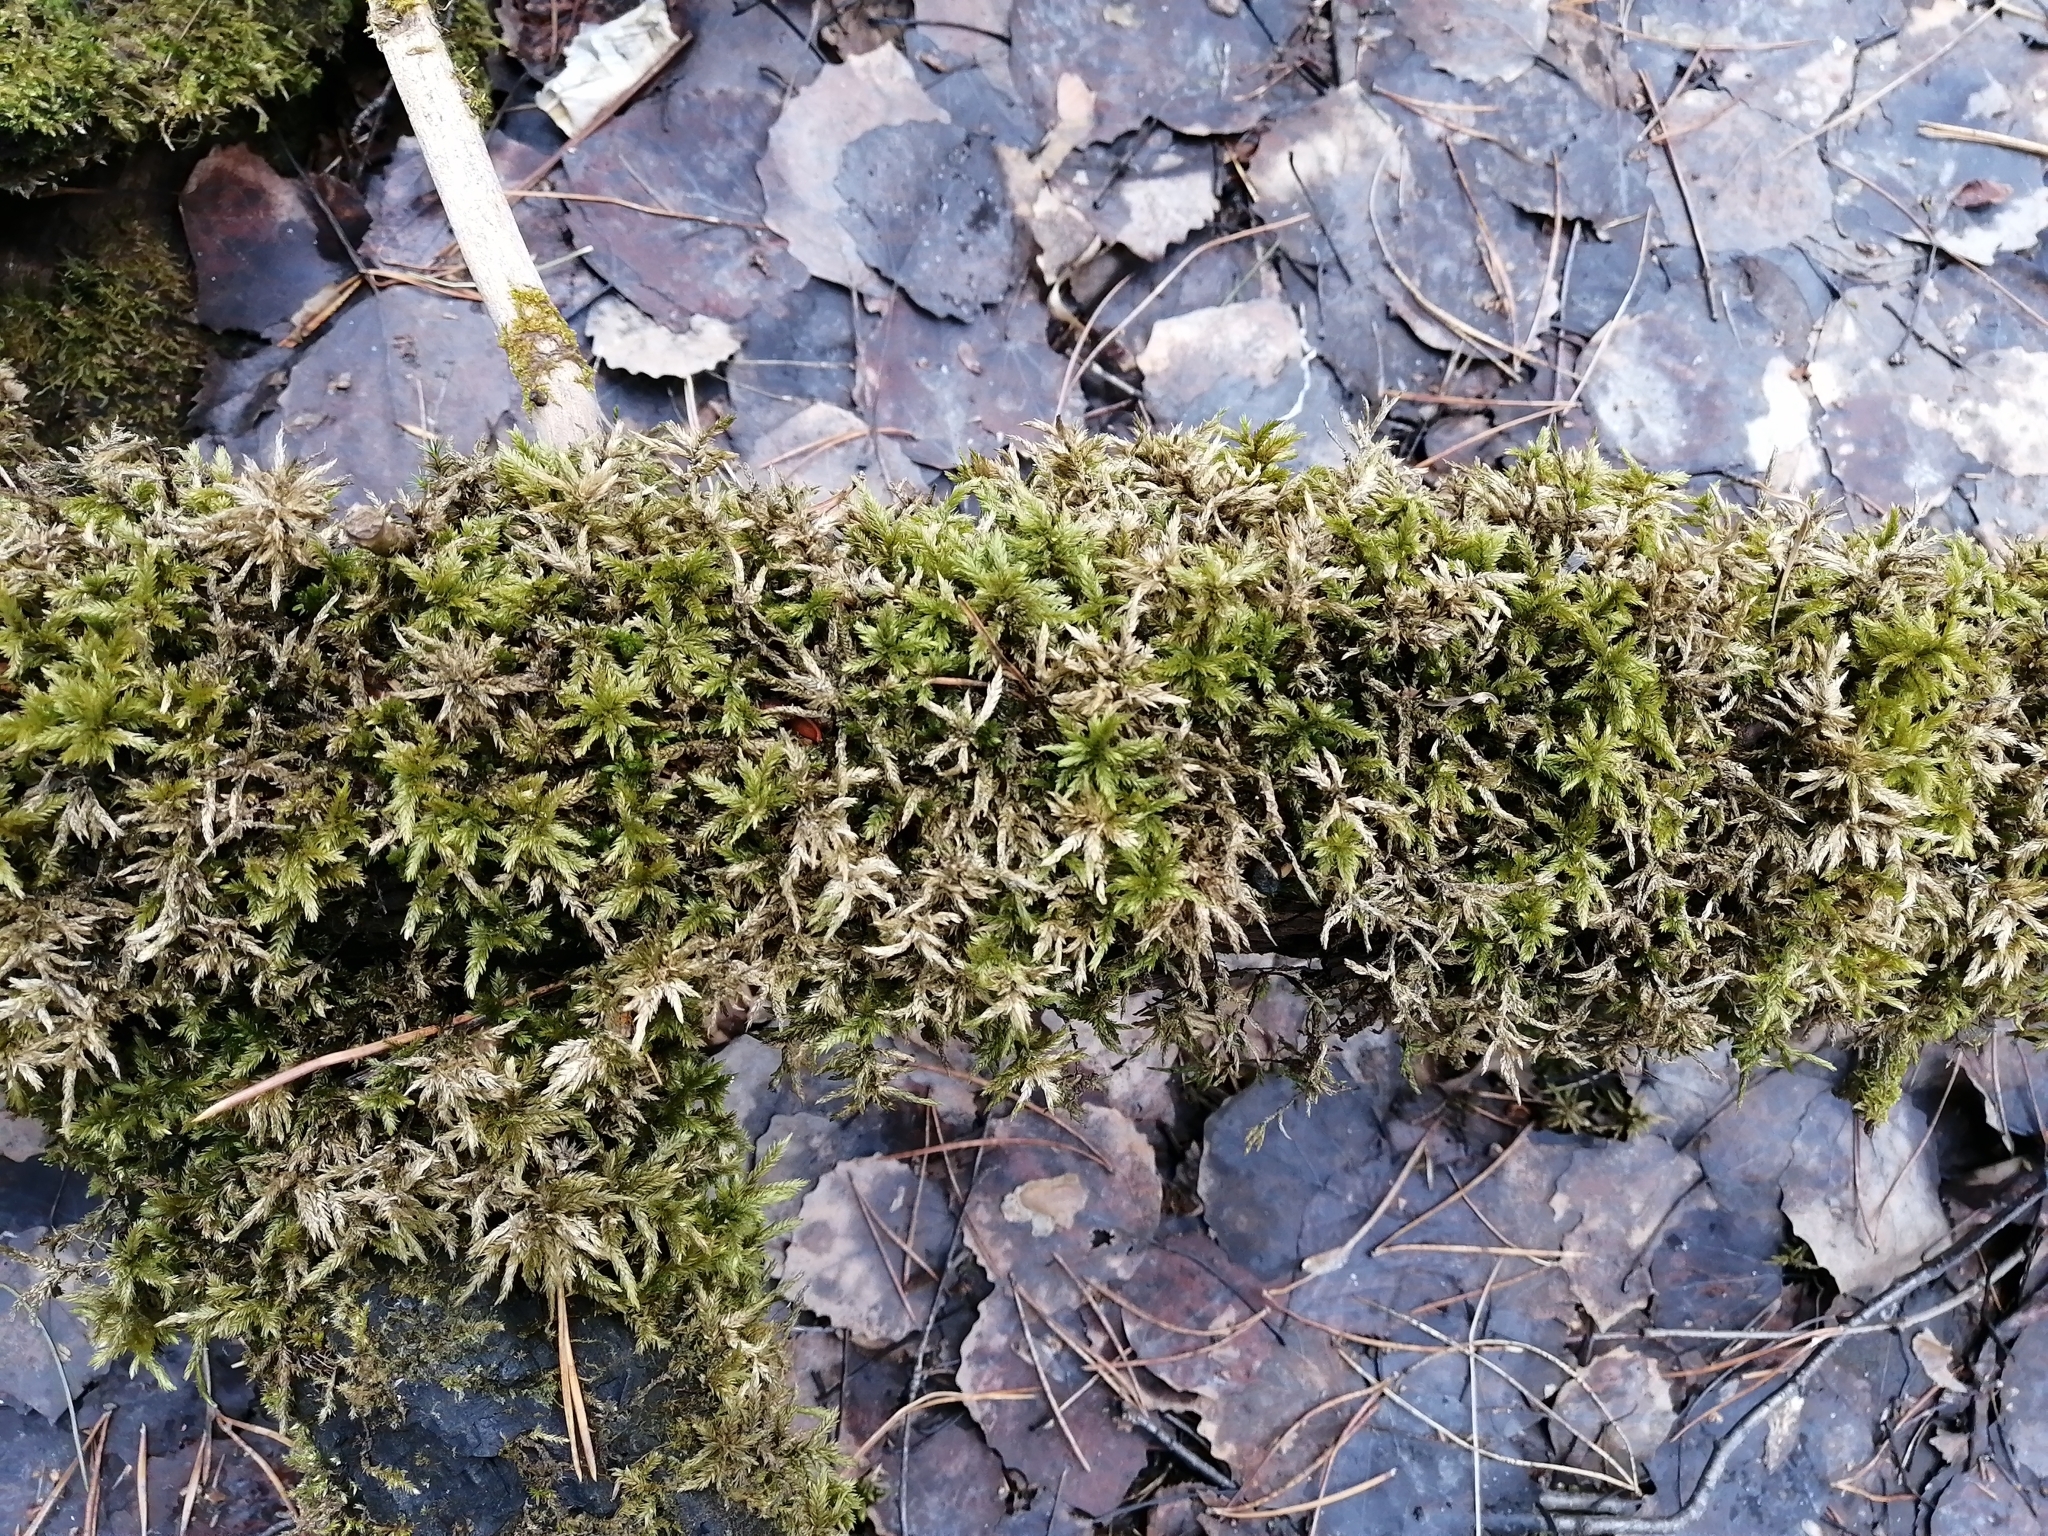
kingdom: Plantae
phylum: Bryophyta
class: Bryopsida
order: Hypnales
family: Climaciaceae
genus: Climacium
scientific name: Climacium dendroides
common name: Northern tree moss
